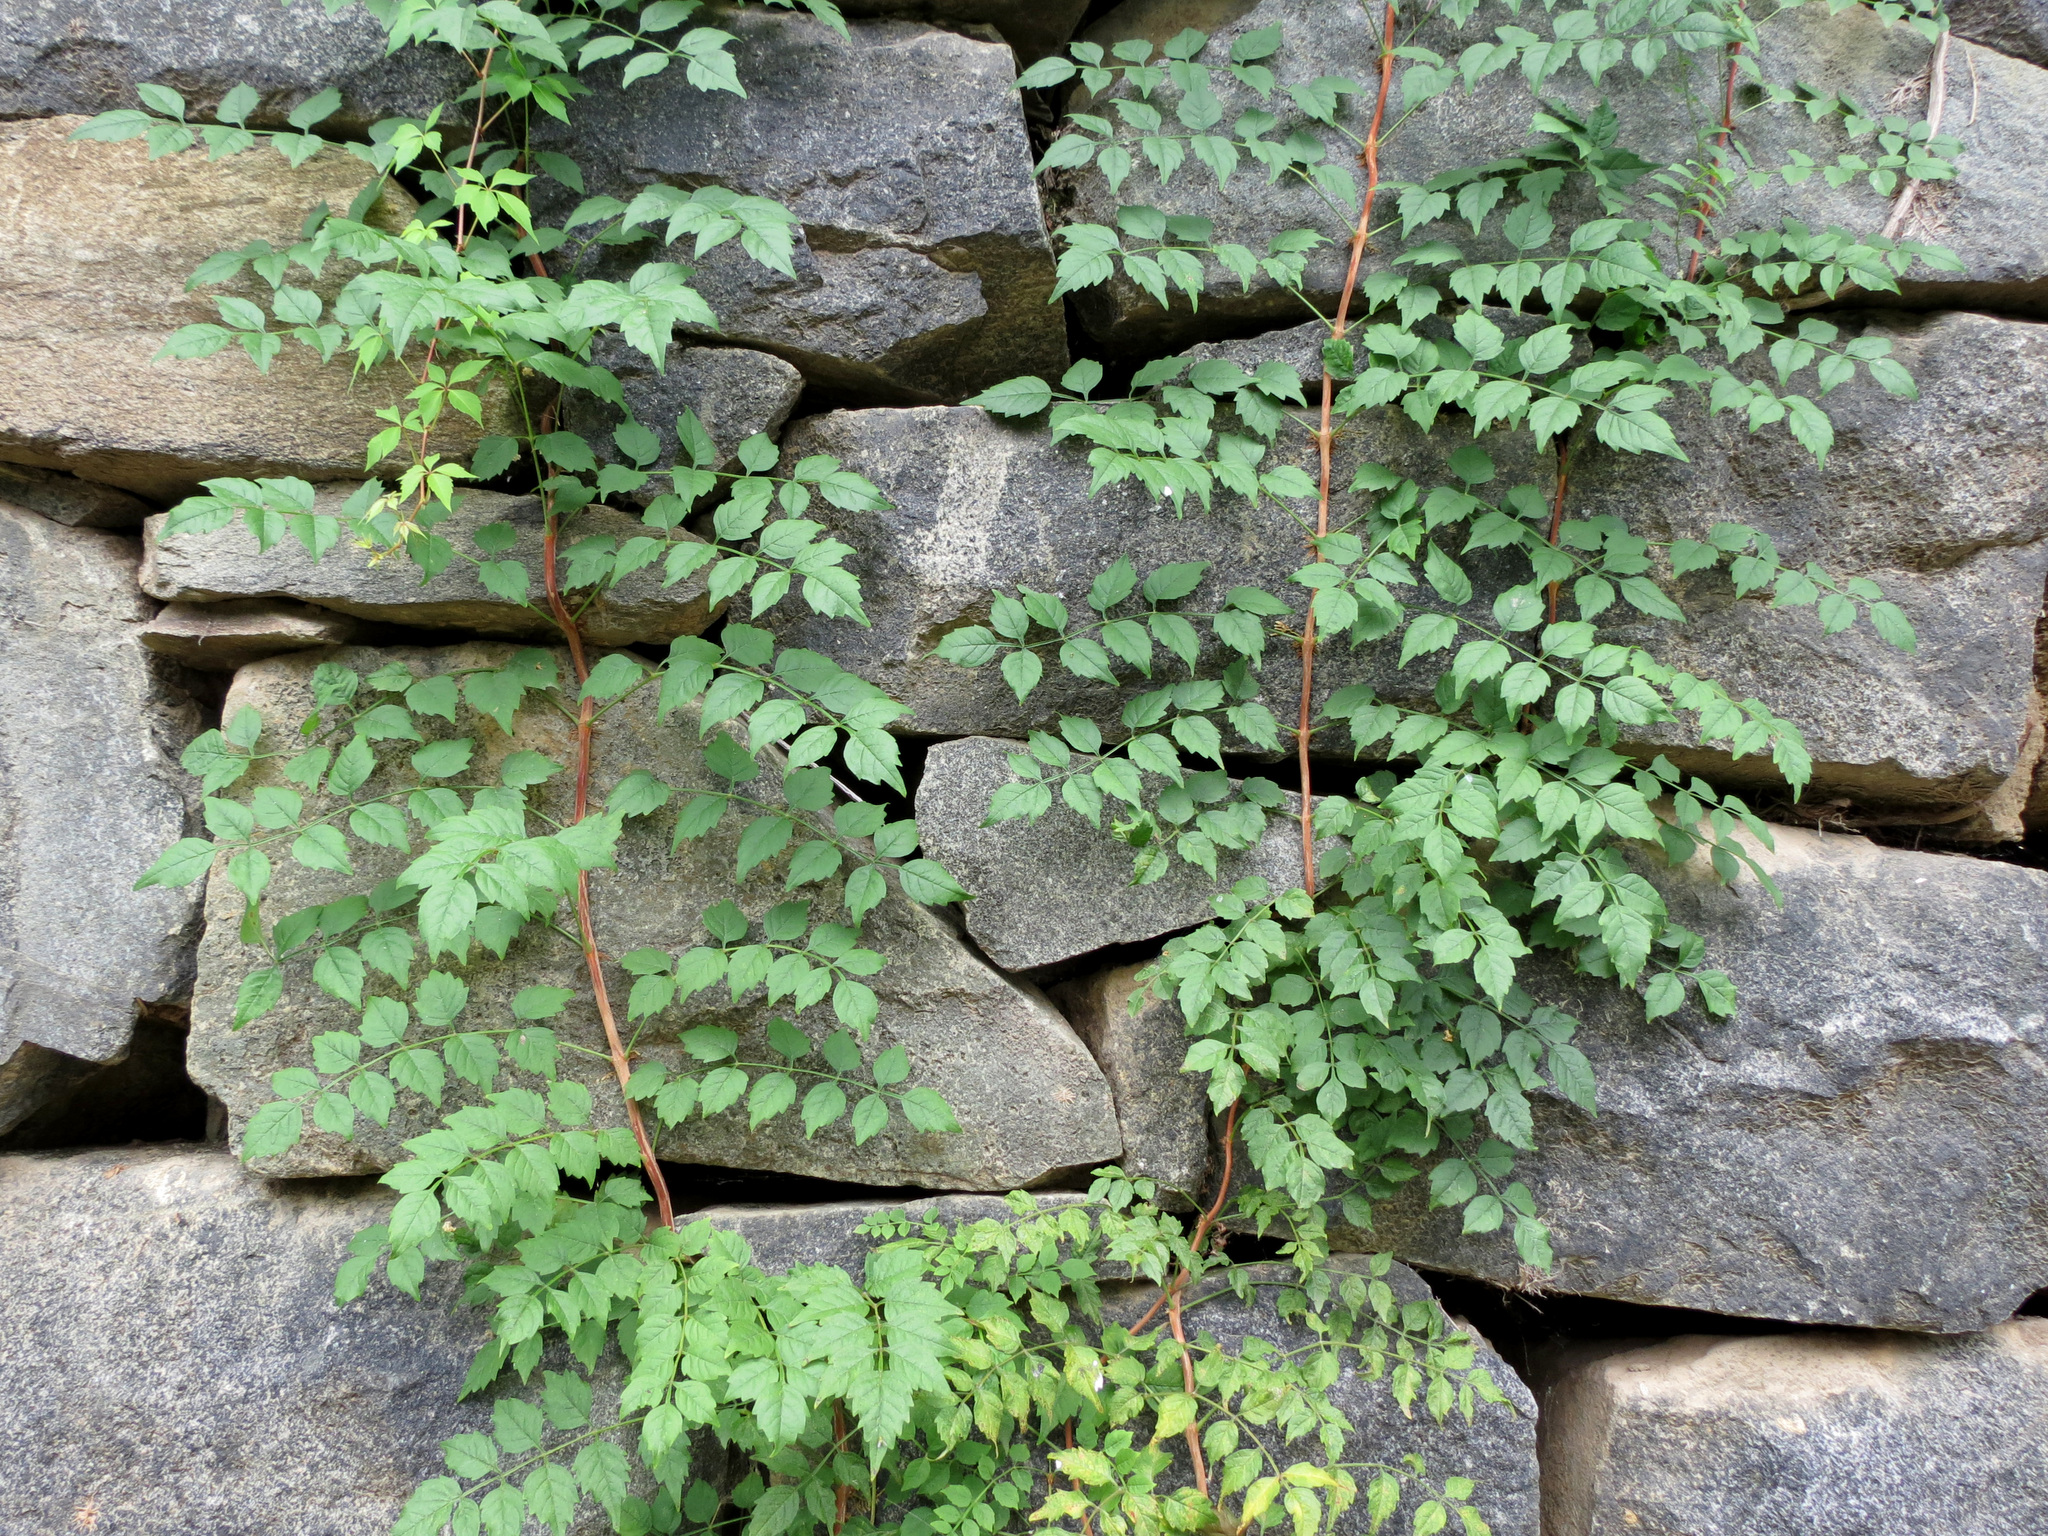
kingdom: Plantae
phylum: Tracheophyta
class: Magnoliopsida
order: Lamiales
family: Bignoniaceae
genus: Campsis
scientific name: Campsis radicans
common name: Trumpet-creeper
